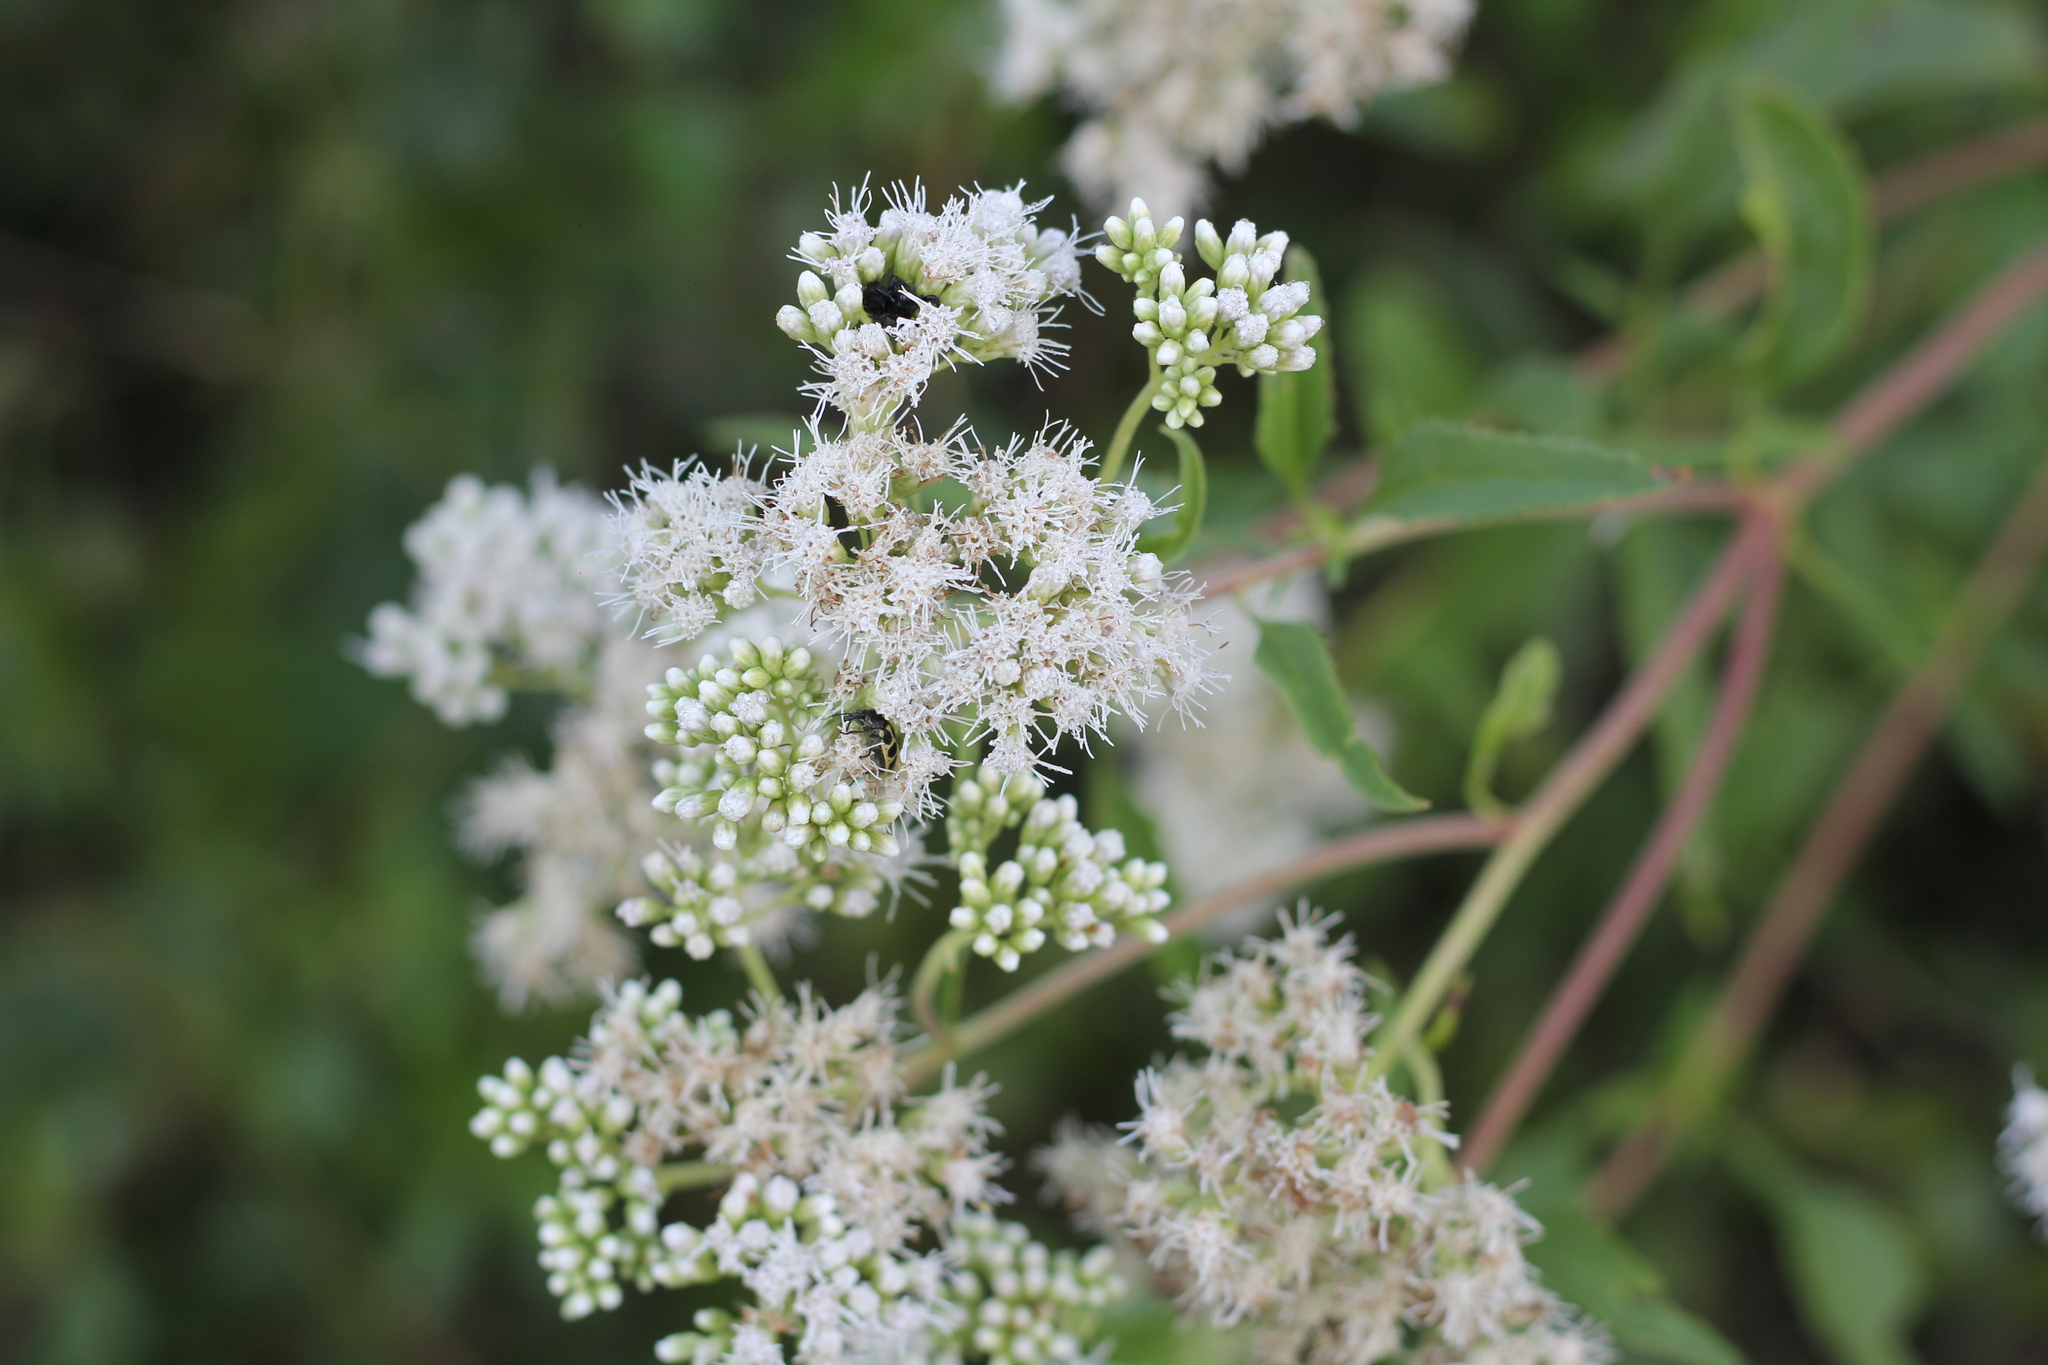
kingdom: Plantae
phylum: Tracheophyta
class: Magnoliopsida
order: Asterales
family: Asteraceae
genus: Austroeupatorium
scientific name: Austroeupatorium inulifolium
